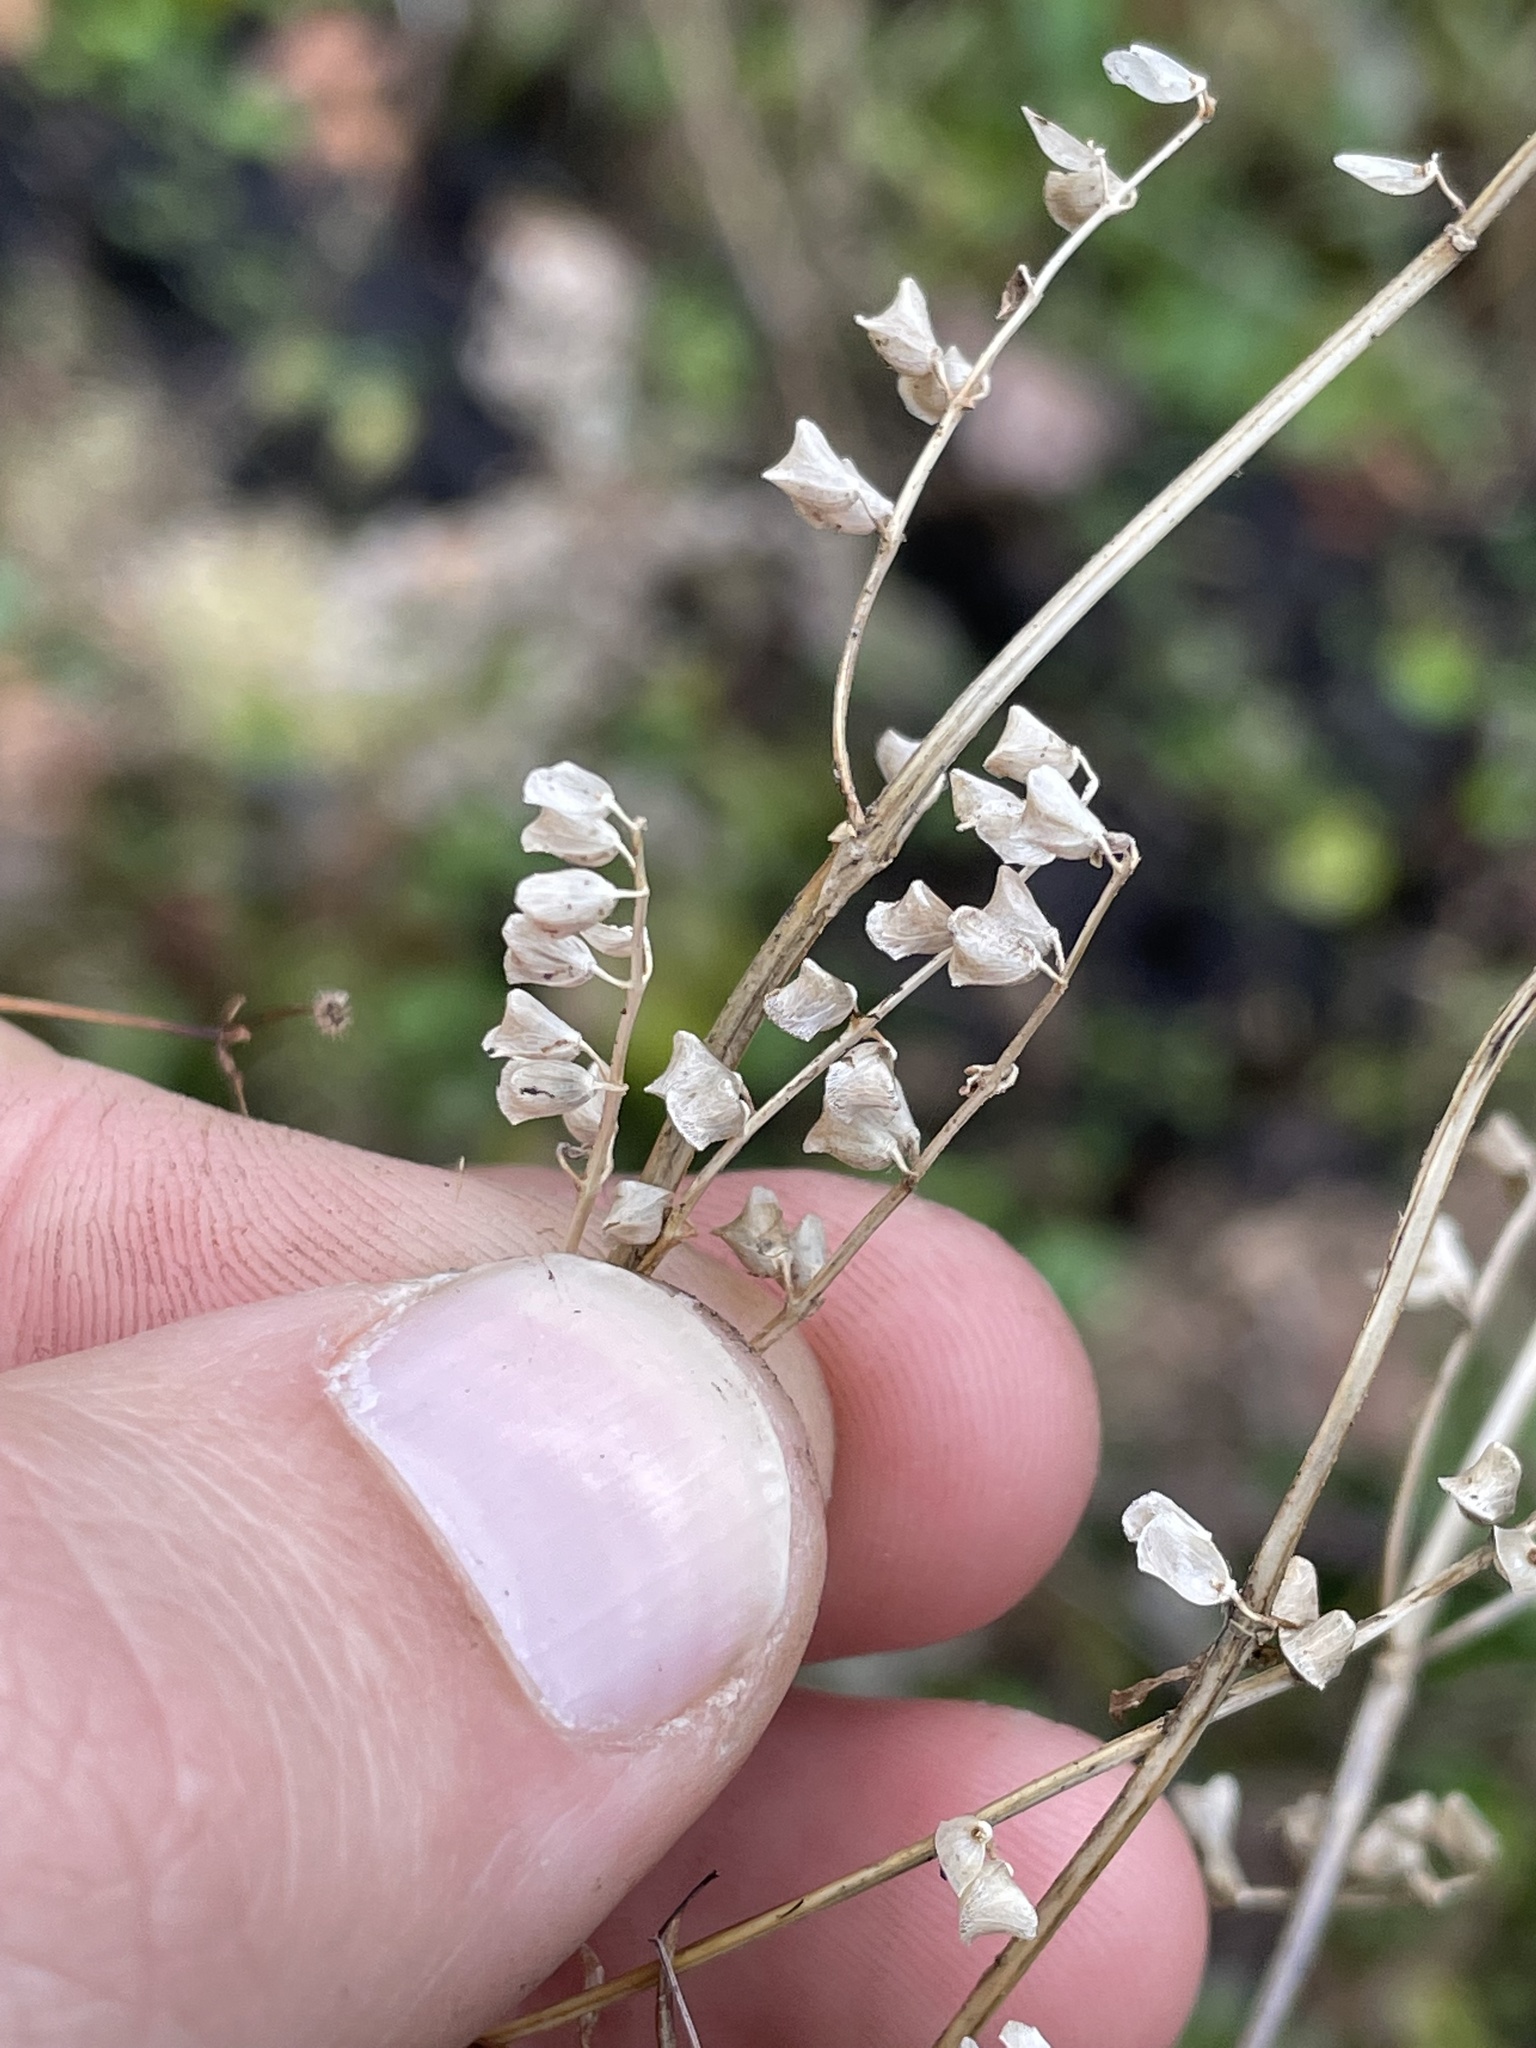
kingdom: Plantae
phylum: Tracheophyta
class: Magnoliopsida
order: Lamiales
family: Verbenaceae
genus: Verbena
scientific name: Verbena urticifolia
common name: Nettle-leaved vervain
